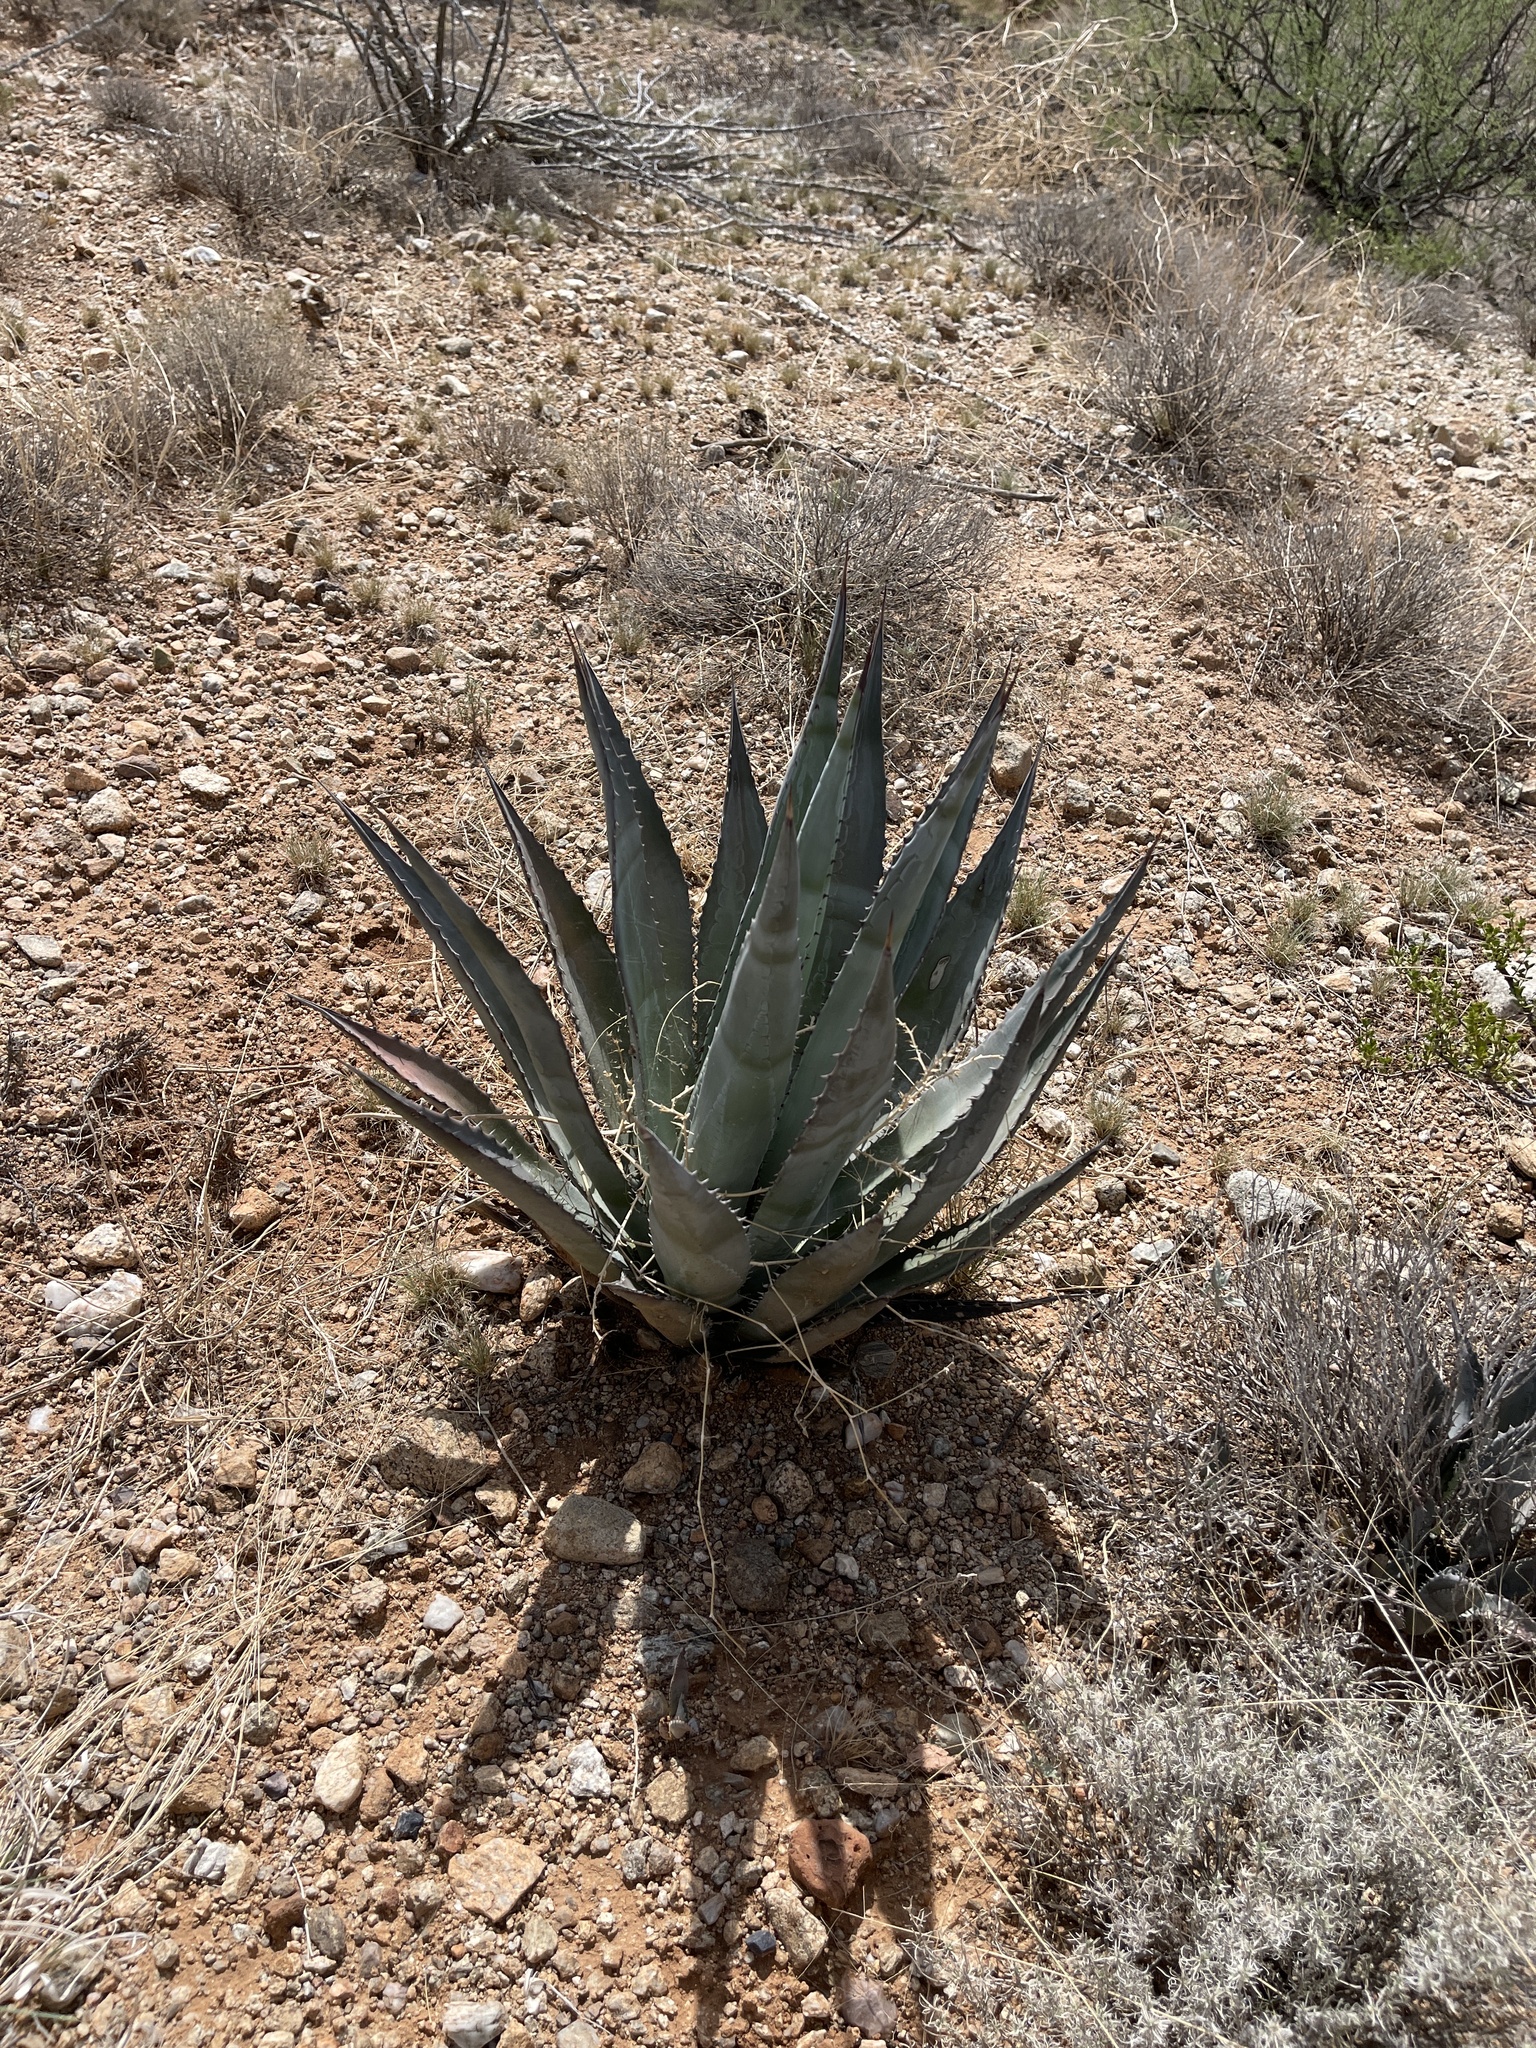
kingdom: Plantae
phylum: Tracheophyta
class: Liliopsida
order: Asparagales
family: Asparagaceae
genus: Agave
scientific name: Agave palmeri
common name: Palmer agave
